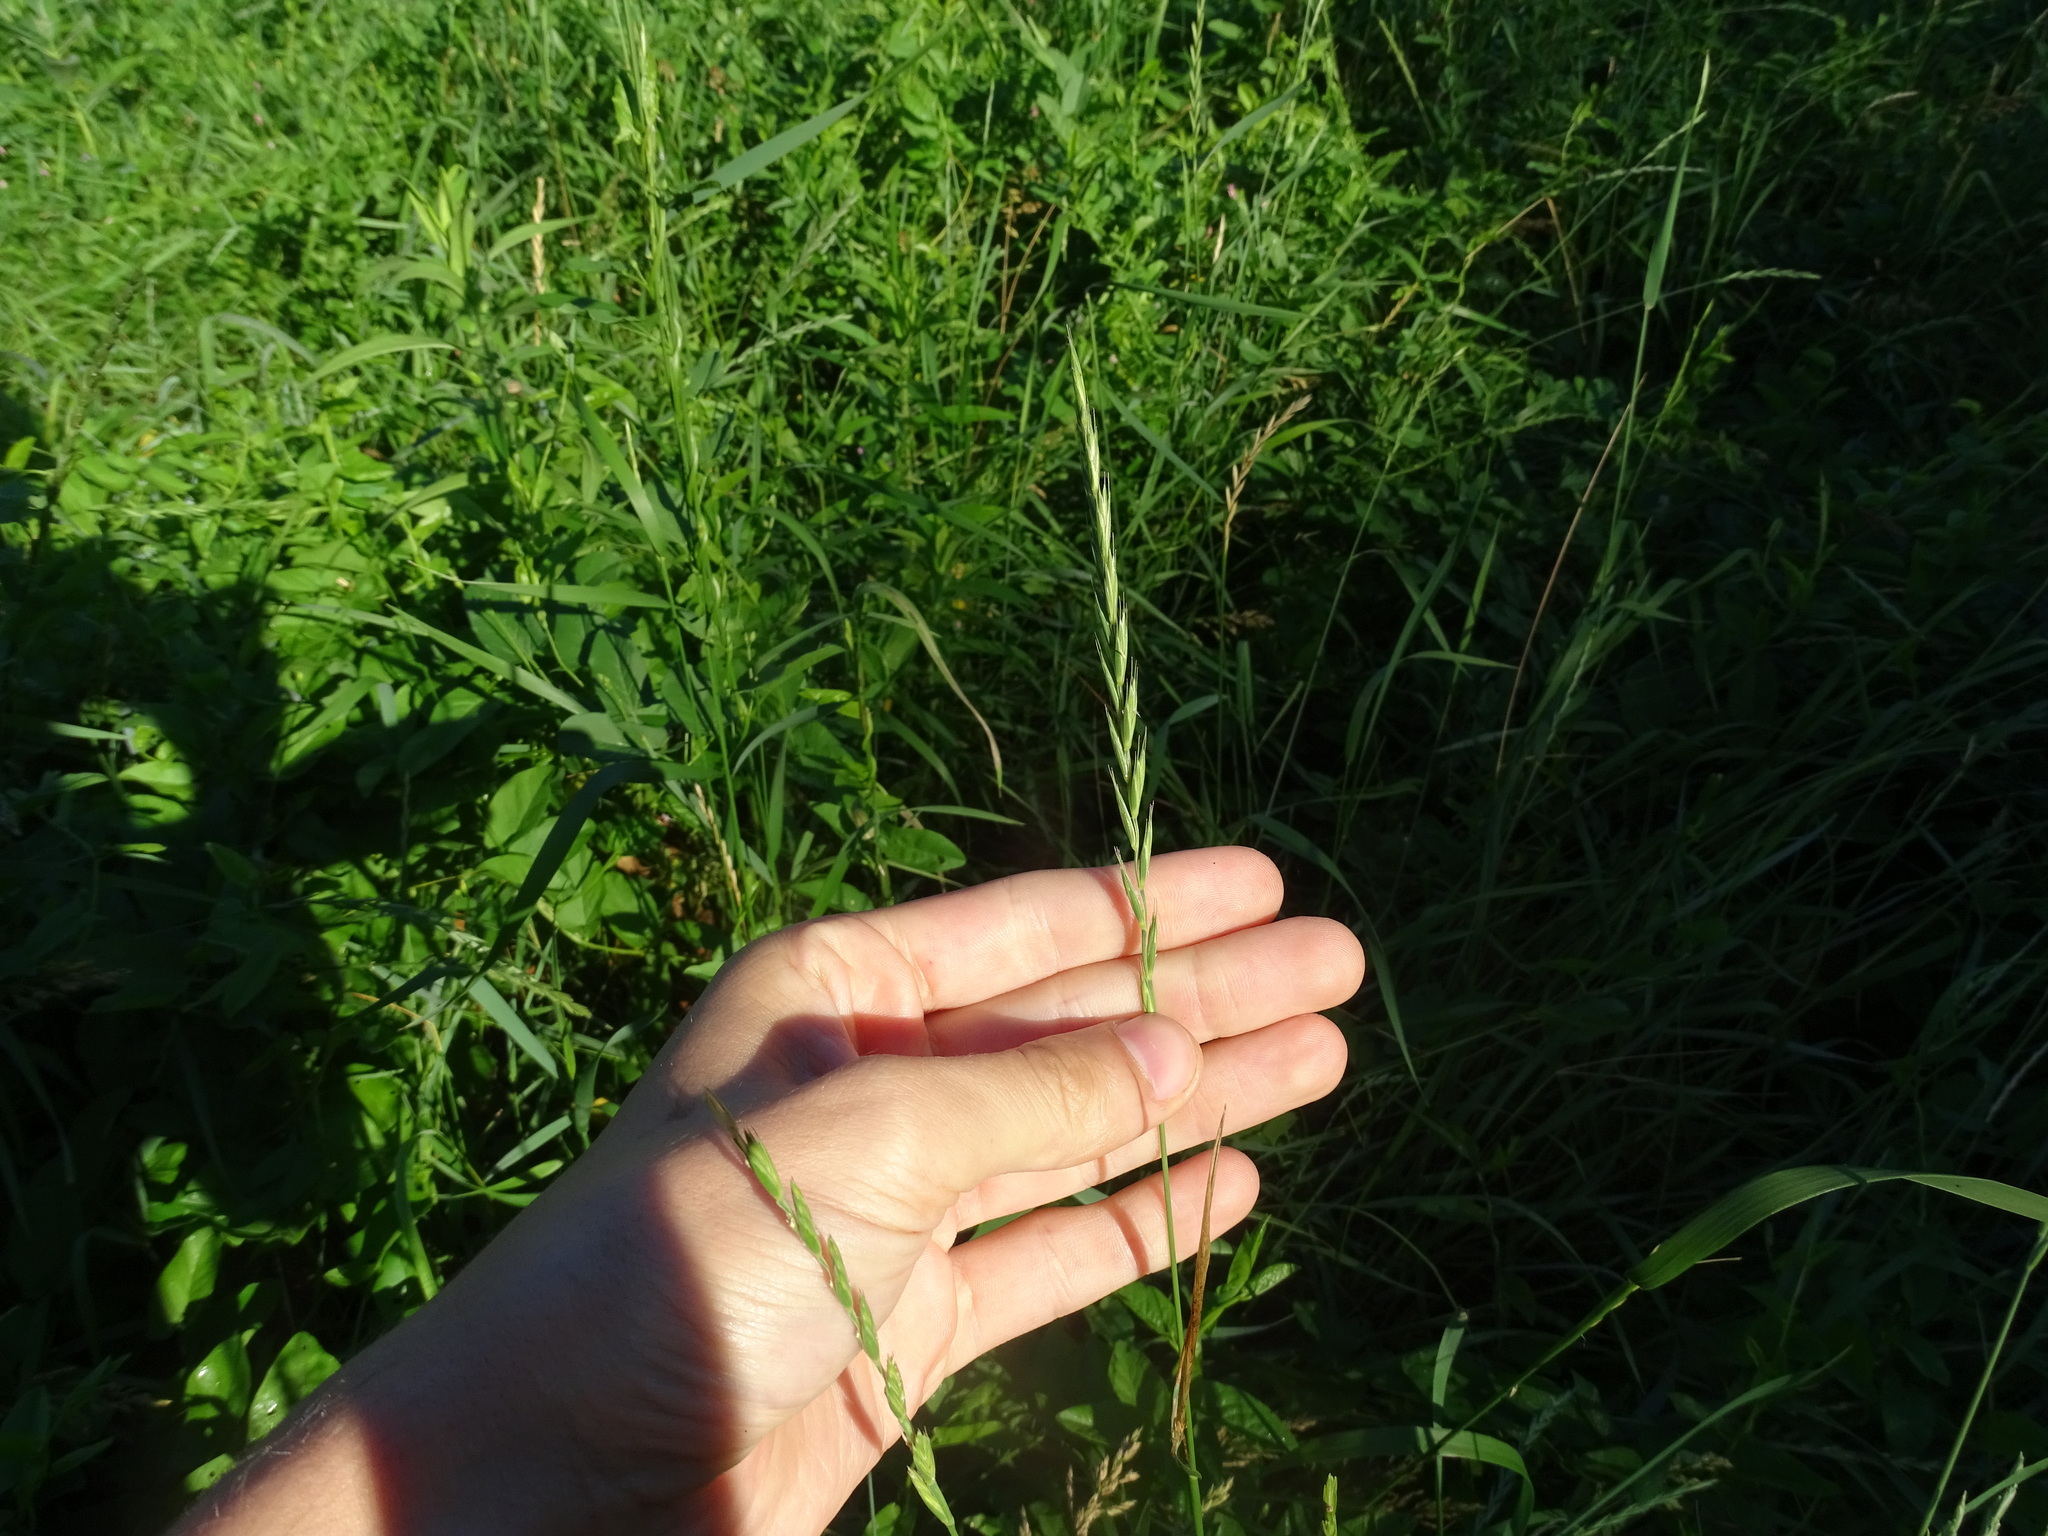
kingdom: Plantae
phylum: Tracheophyta
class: Liliopsida
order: Poales
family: Poaceae
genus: Elymus
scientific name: Elymus repens
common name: Quackgrass
